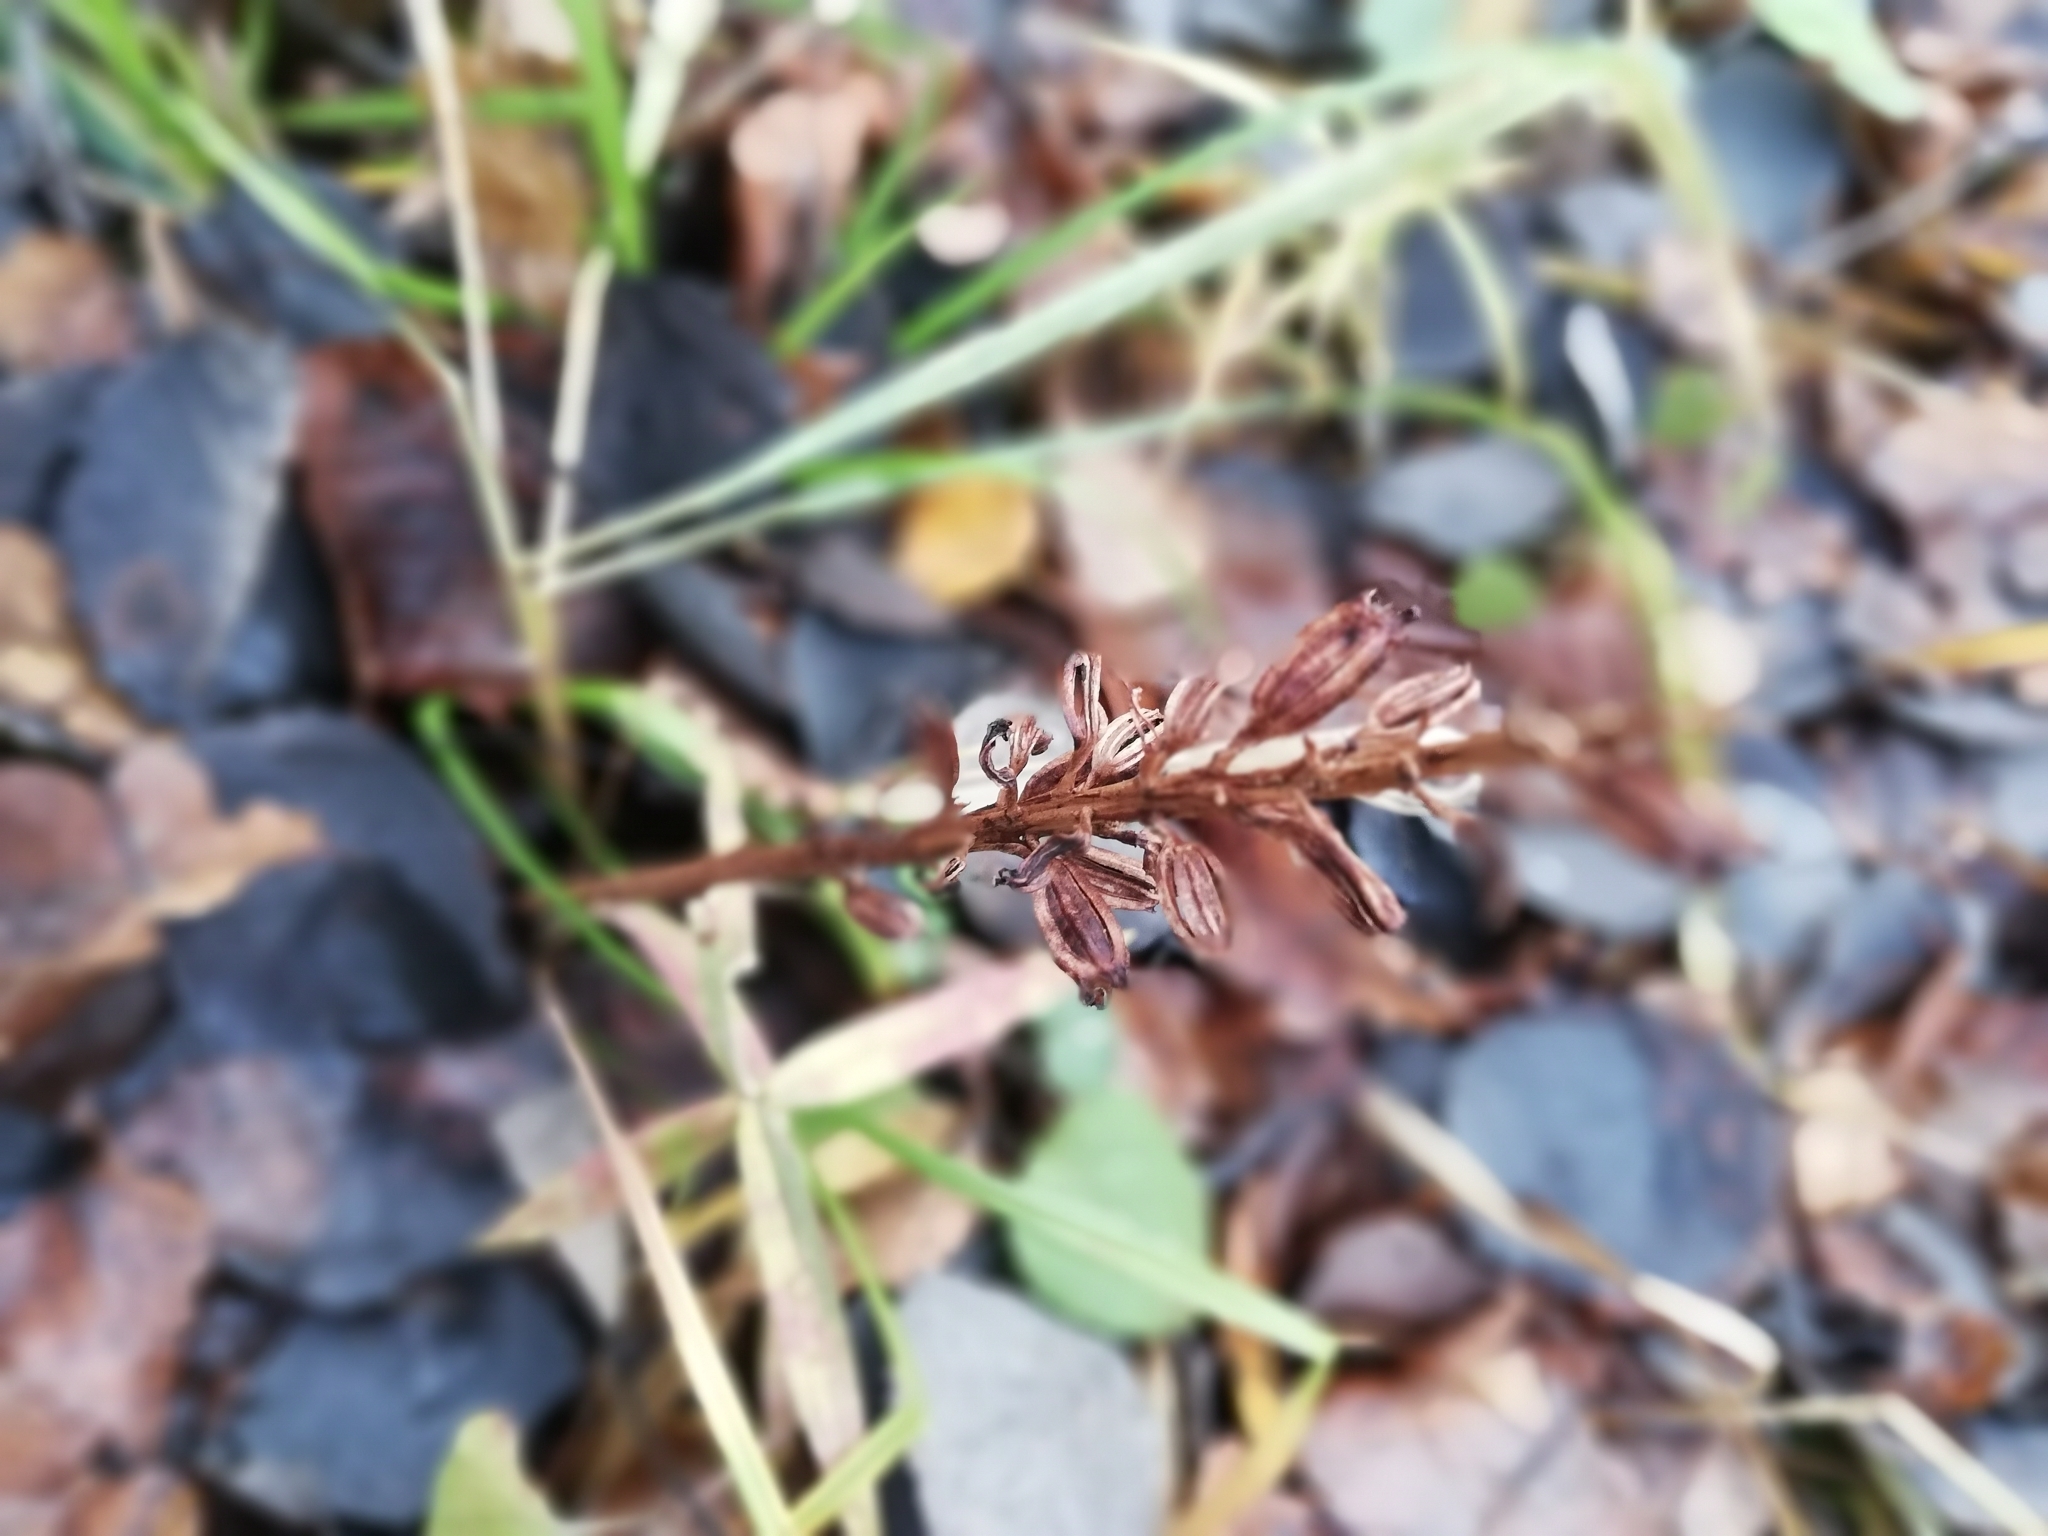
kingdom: Plantae
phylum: Tracheophyta
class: Liliopsida
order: Asparagales
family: Orchidaceae
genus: Neottia
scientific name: Neottia nidus-avis
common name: Bird's-nest orchid
